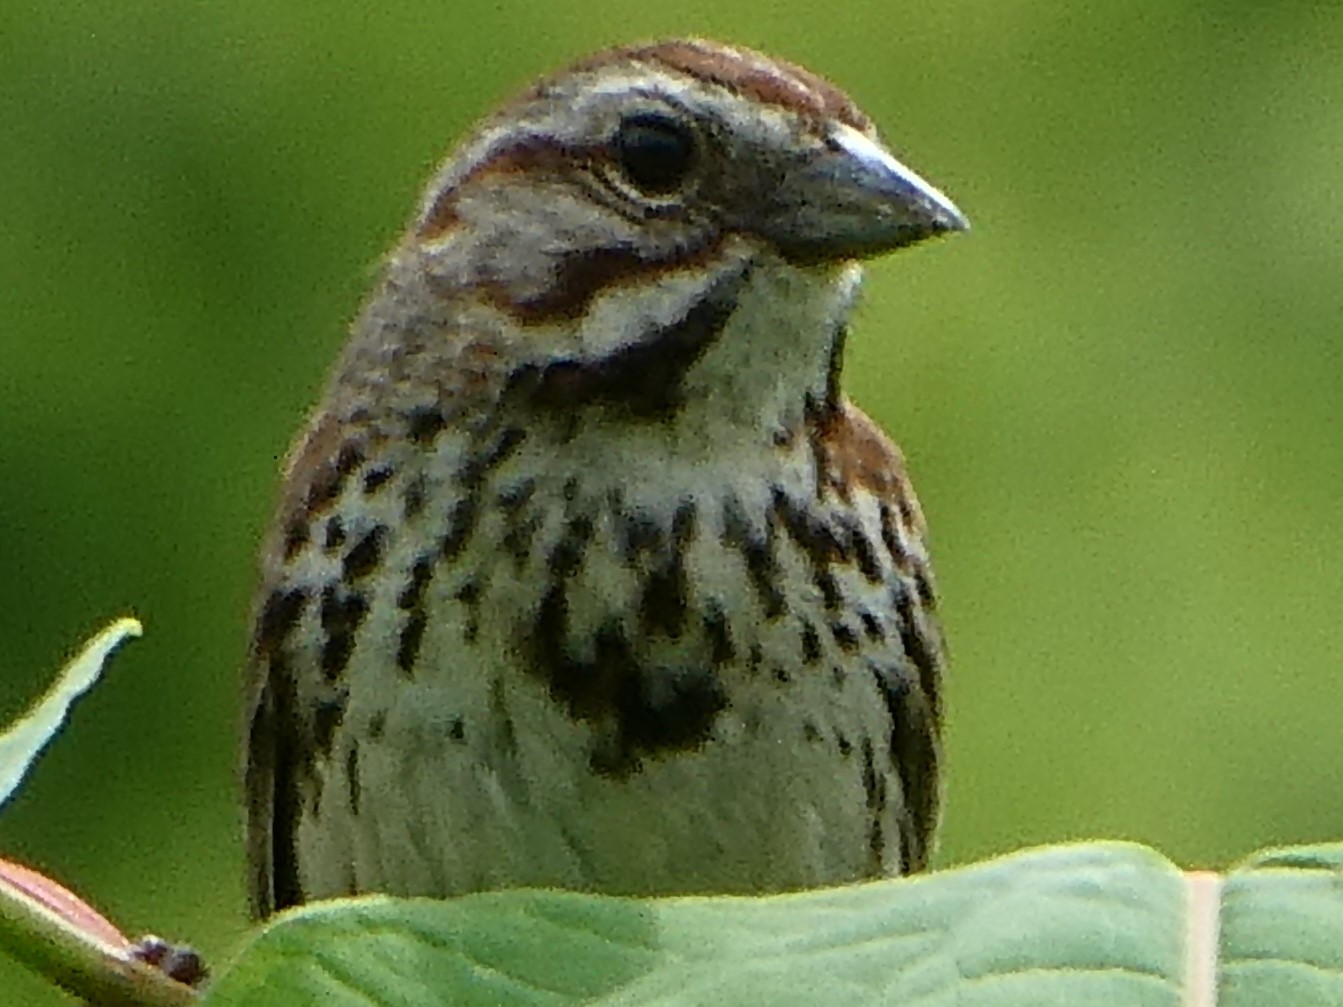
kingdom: Animalia
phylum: Chordata
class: Aves
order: Passeriformes
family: Passerellidae
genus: Melospiza
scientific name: Melospiza melodia
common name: Song sparrow
